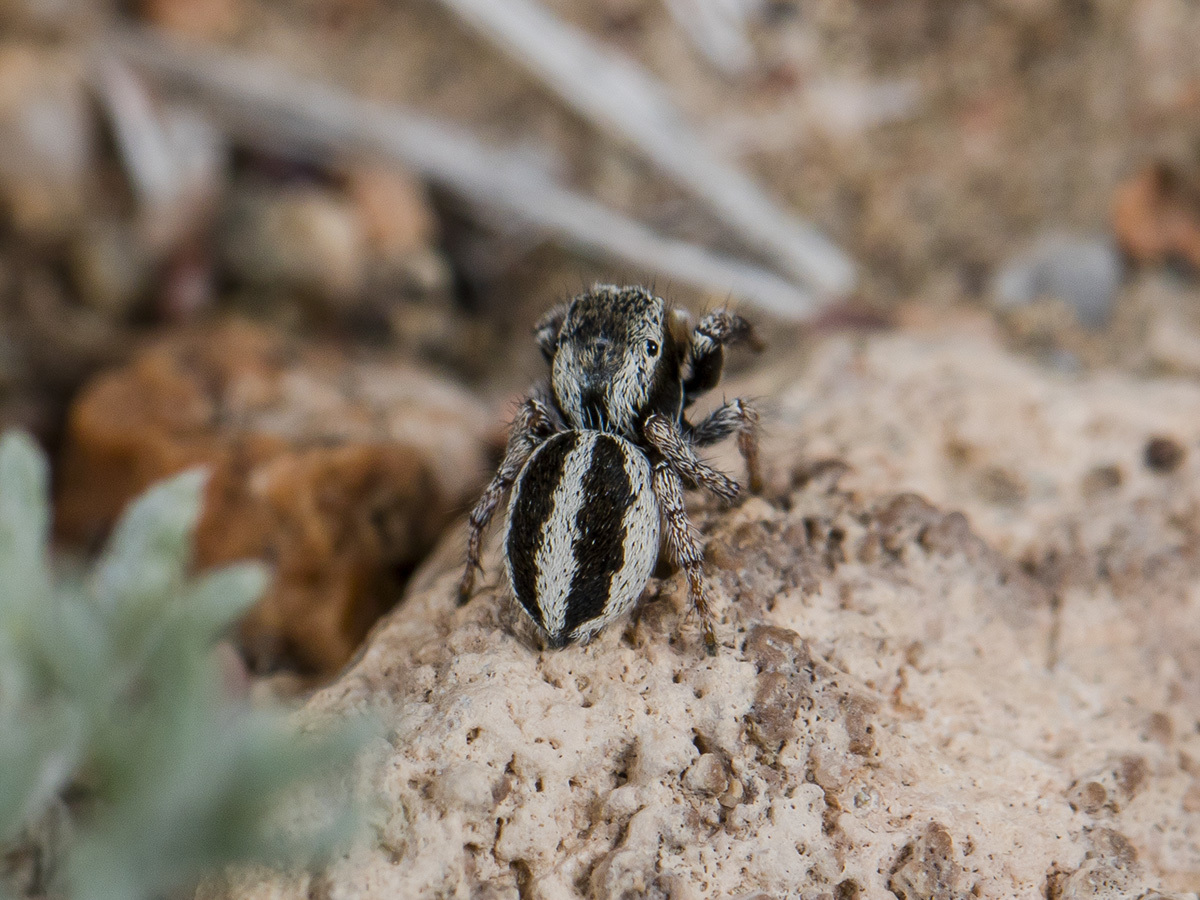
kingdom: Animalia
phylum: Arthropoda
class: Arachnida
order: Araneae
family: Salticidae
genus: Pellenes
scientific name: Pellenes epularis
